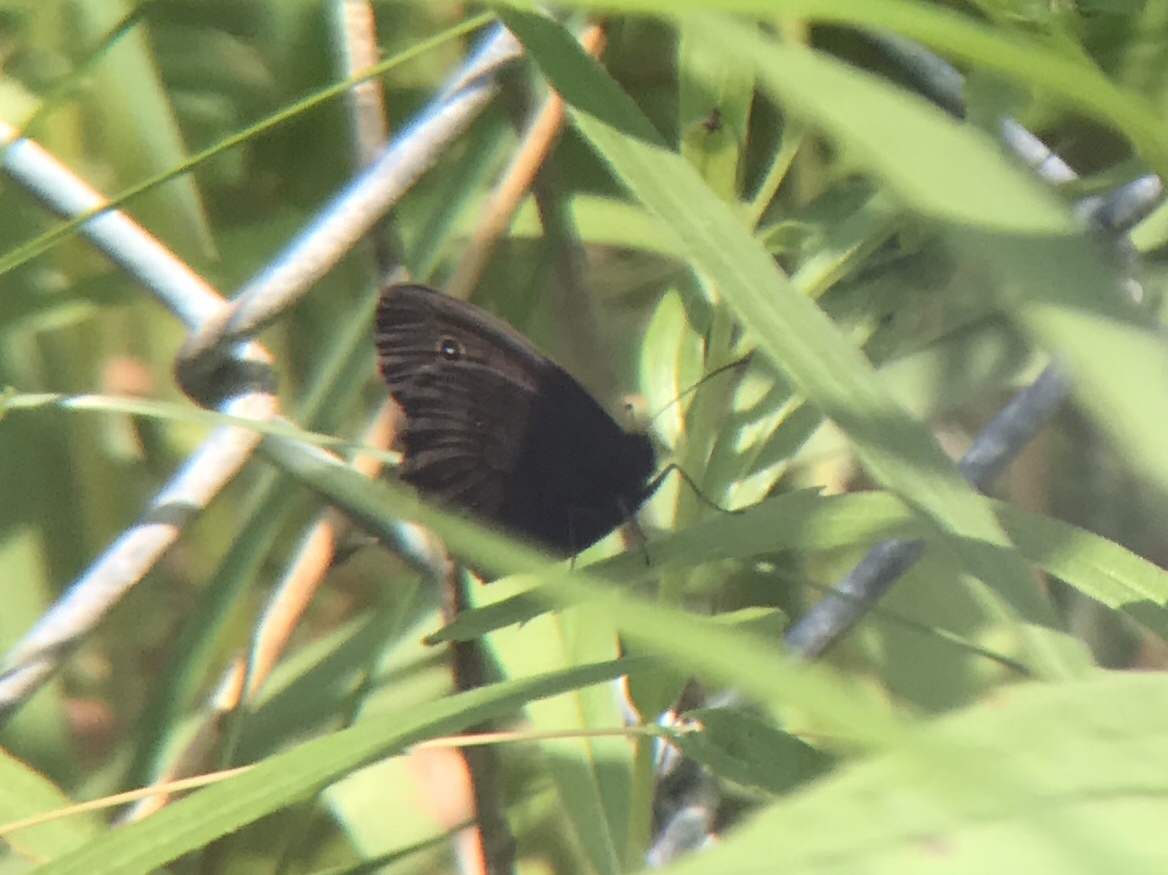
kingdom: Animalia
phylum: Arthropoda
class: Insecta
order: Lepidoptera
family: Nymphalidae
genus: Cercyonis
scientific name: Cercyonis pegala
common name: Common wood-nymph
